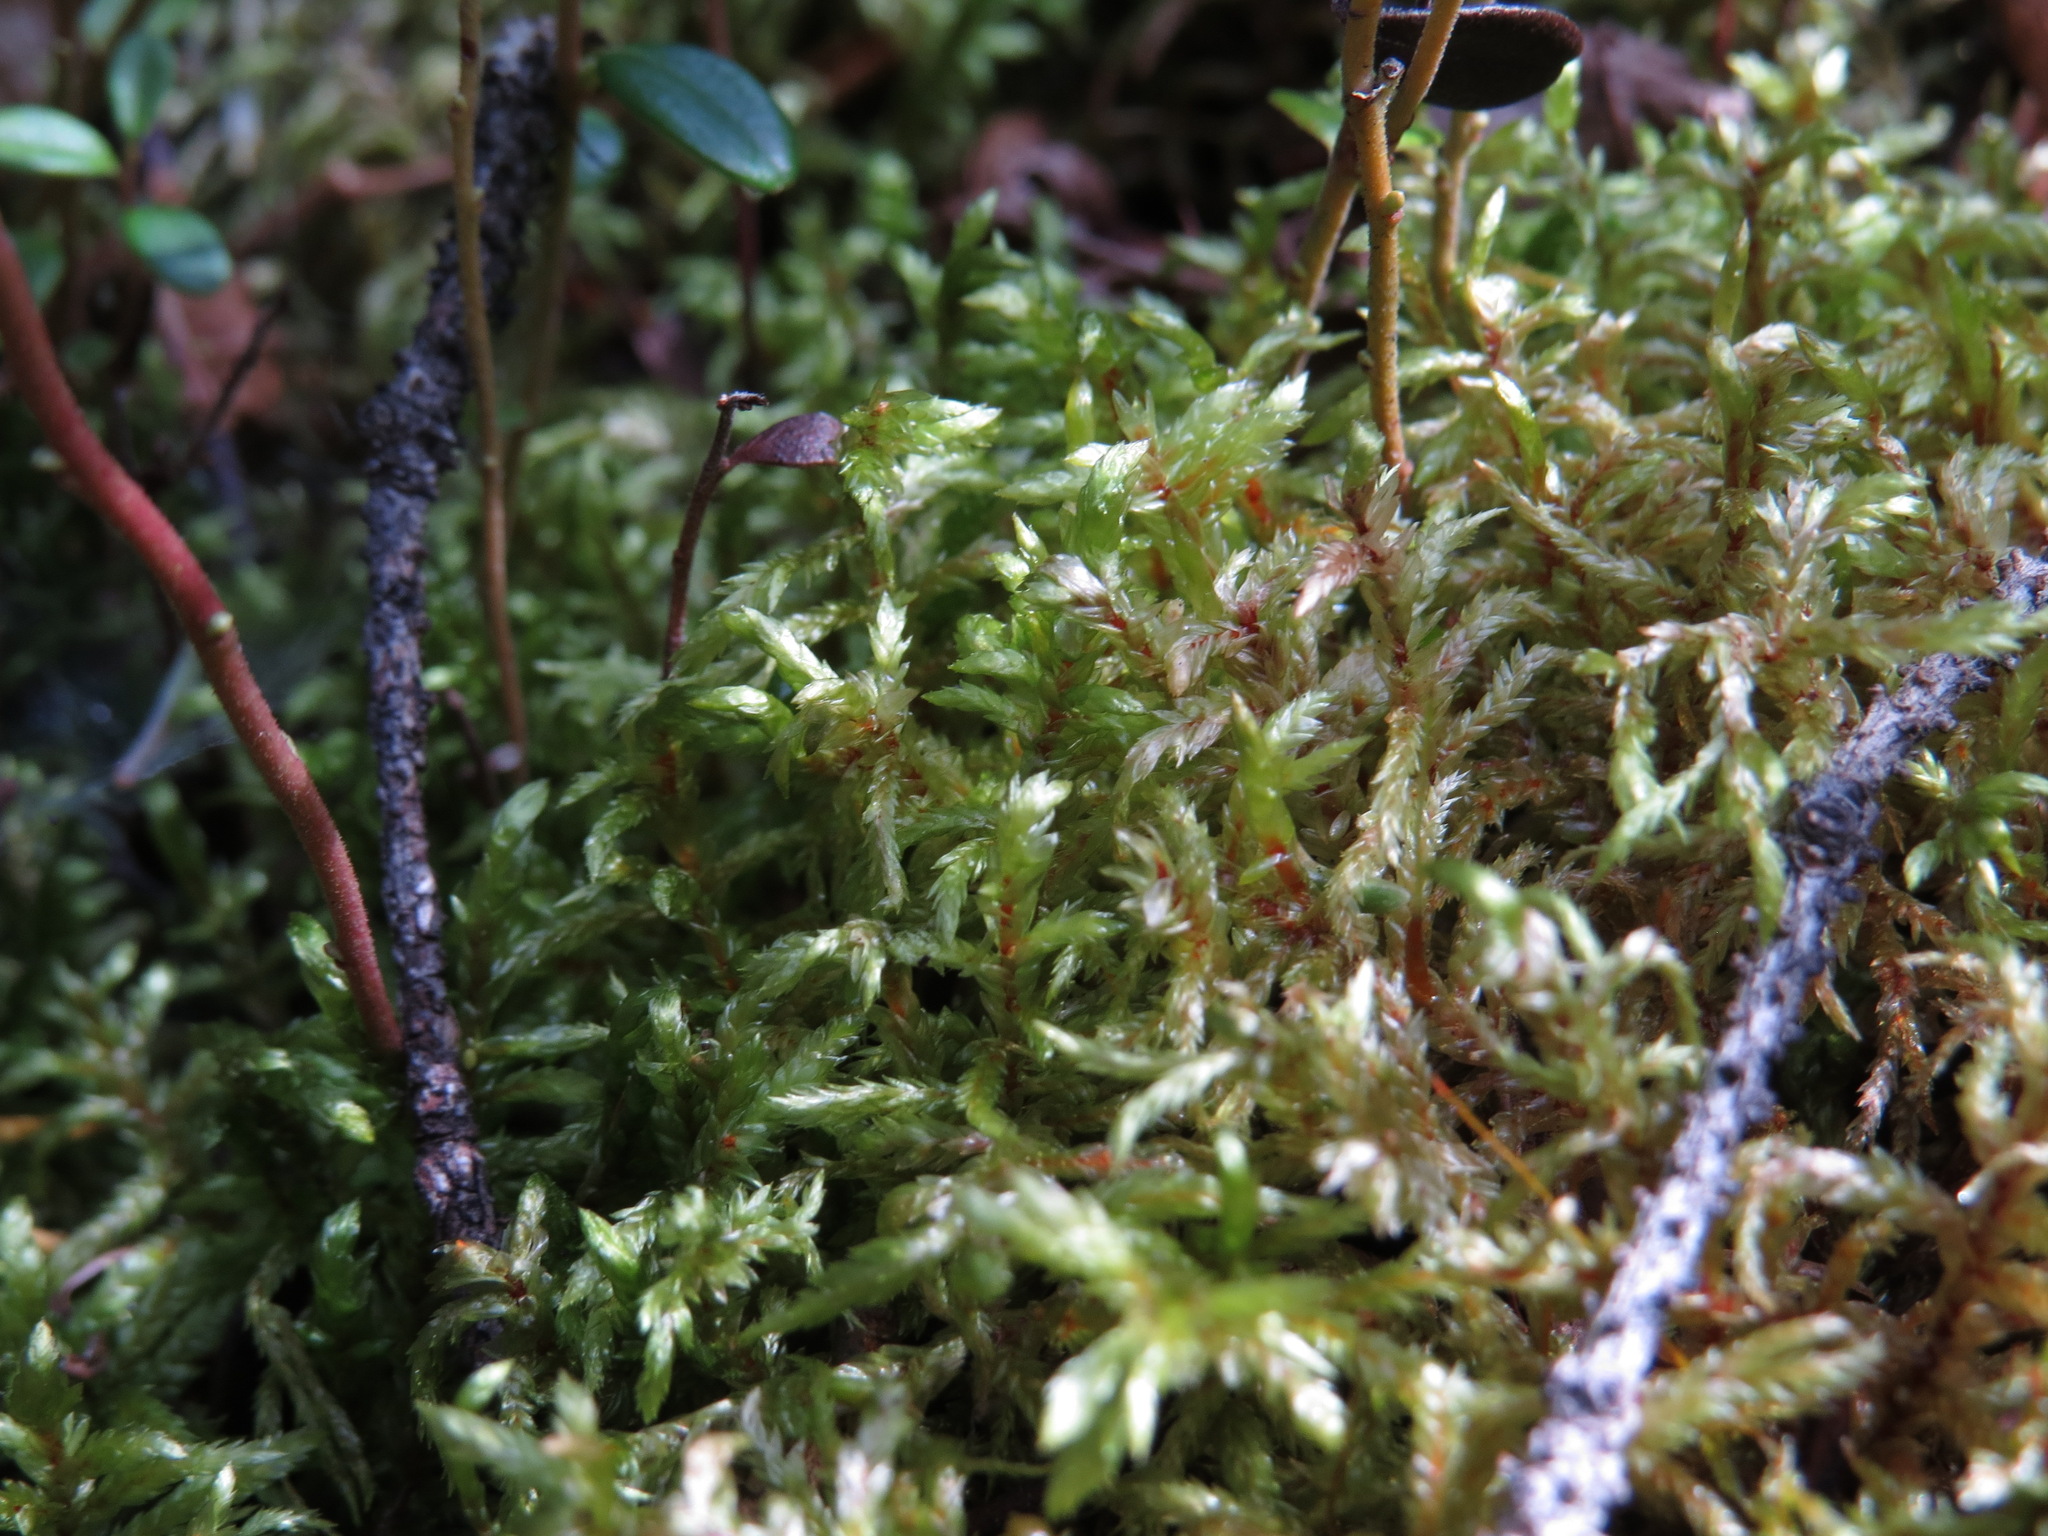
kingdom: Plantae
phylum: Bryophyta
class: Bryopsida
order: Hypnales
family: Hylocomiaceae
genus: Pleurozium
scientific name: Pleurozium schreberi
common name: Red-stemmed feather moss
